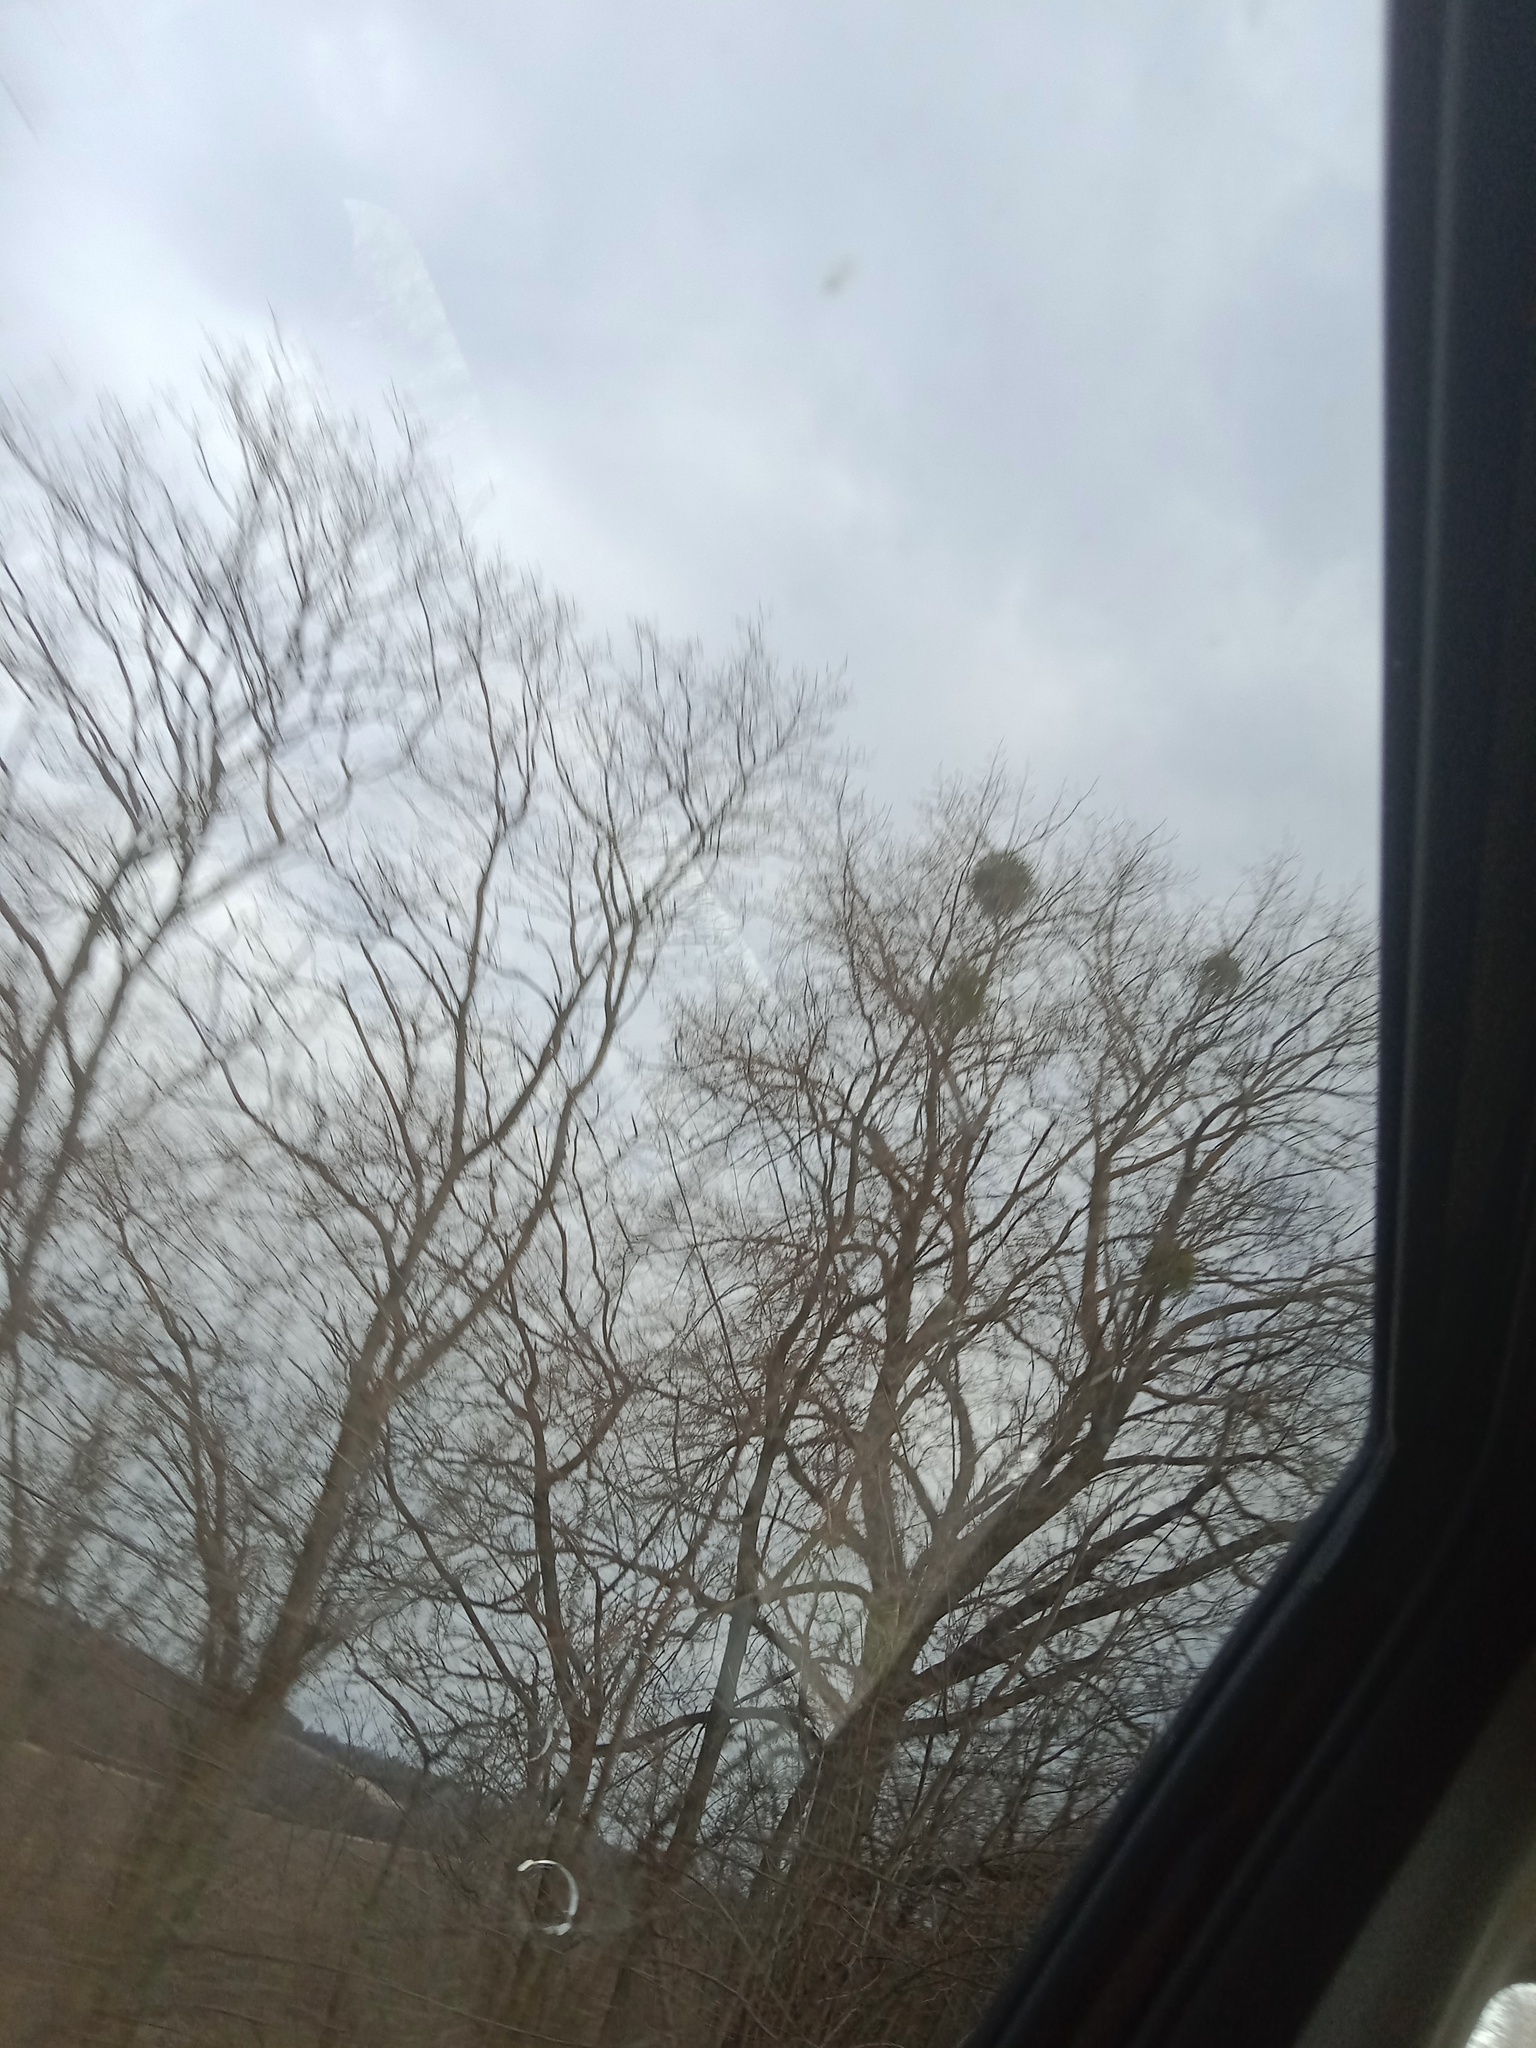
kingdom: Plantae
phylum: Tracheophyta
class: Magnoliopsida
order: Santalales
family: Viscaceae
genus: Viscum
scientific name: Viscum album
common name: Mistletoe
